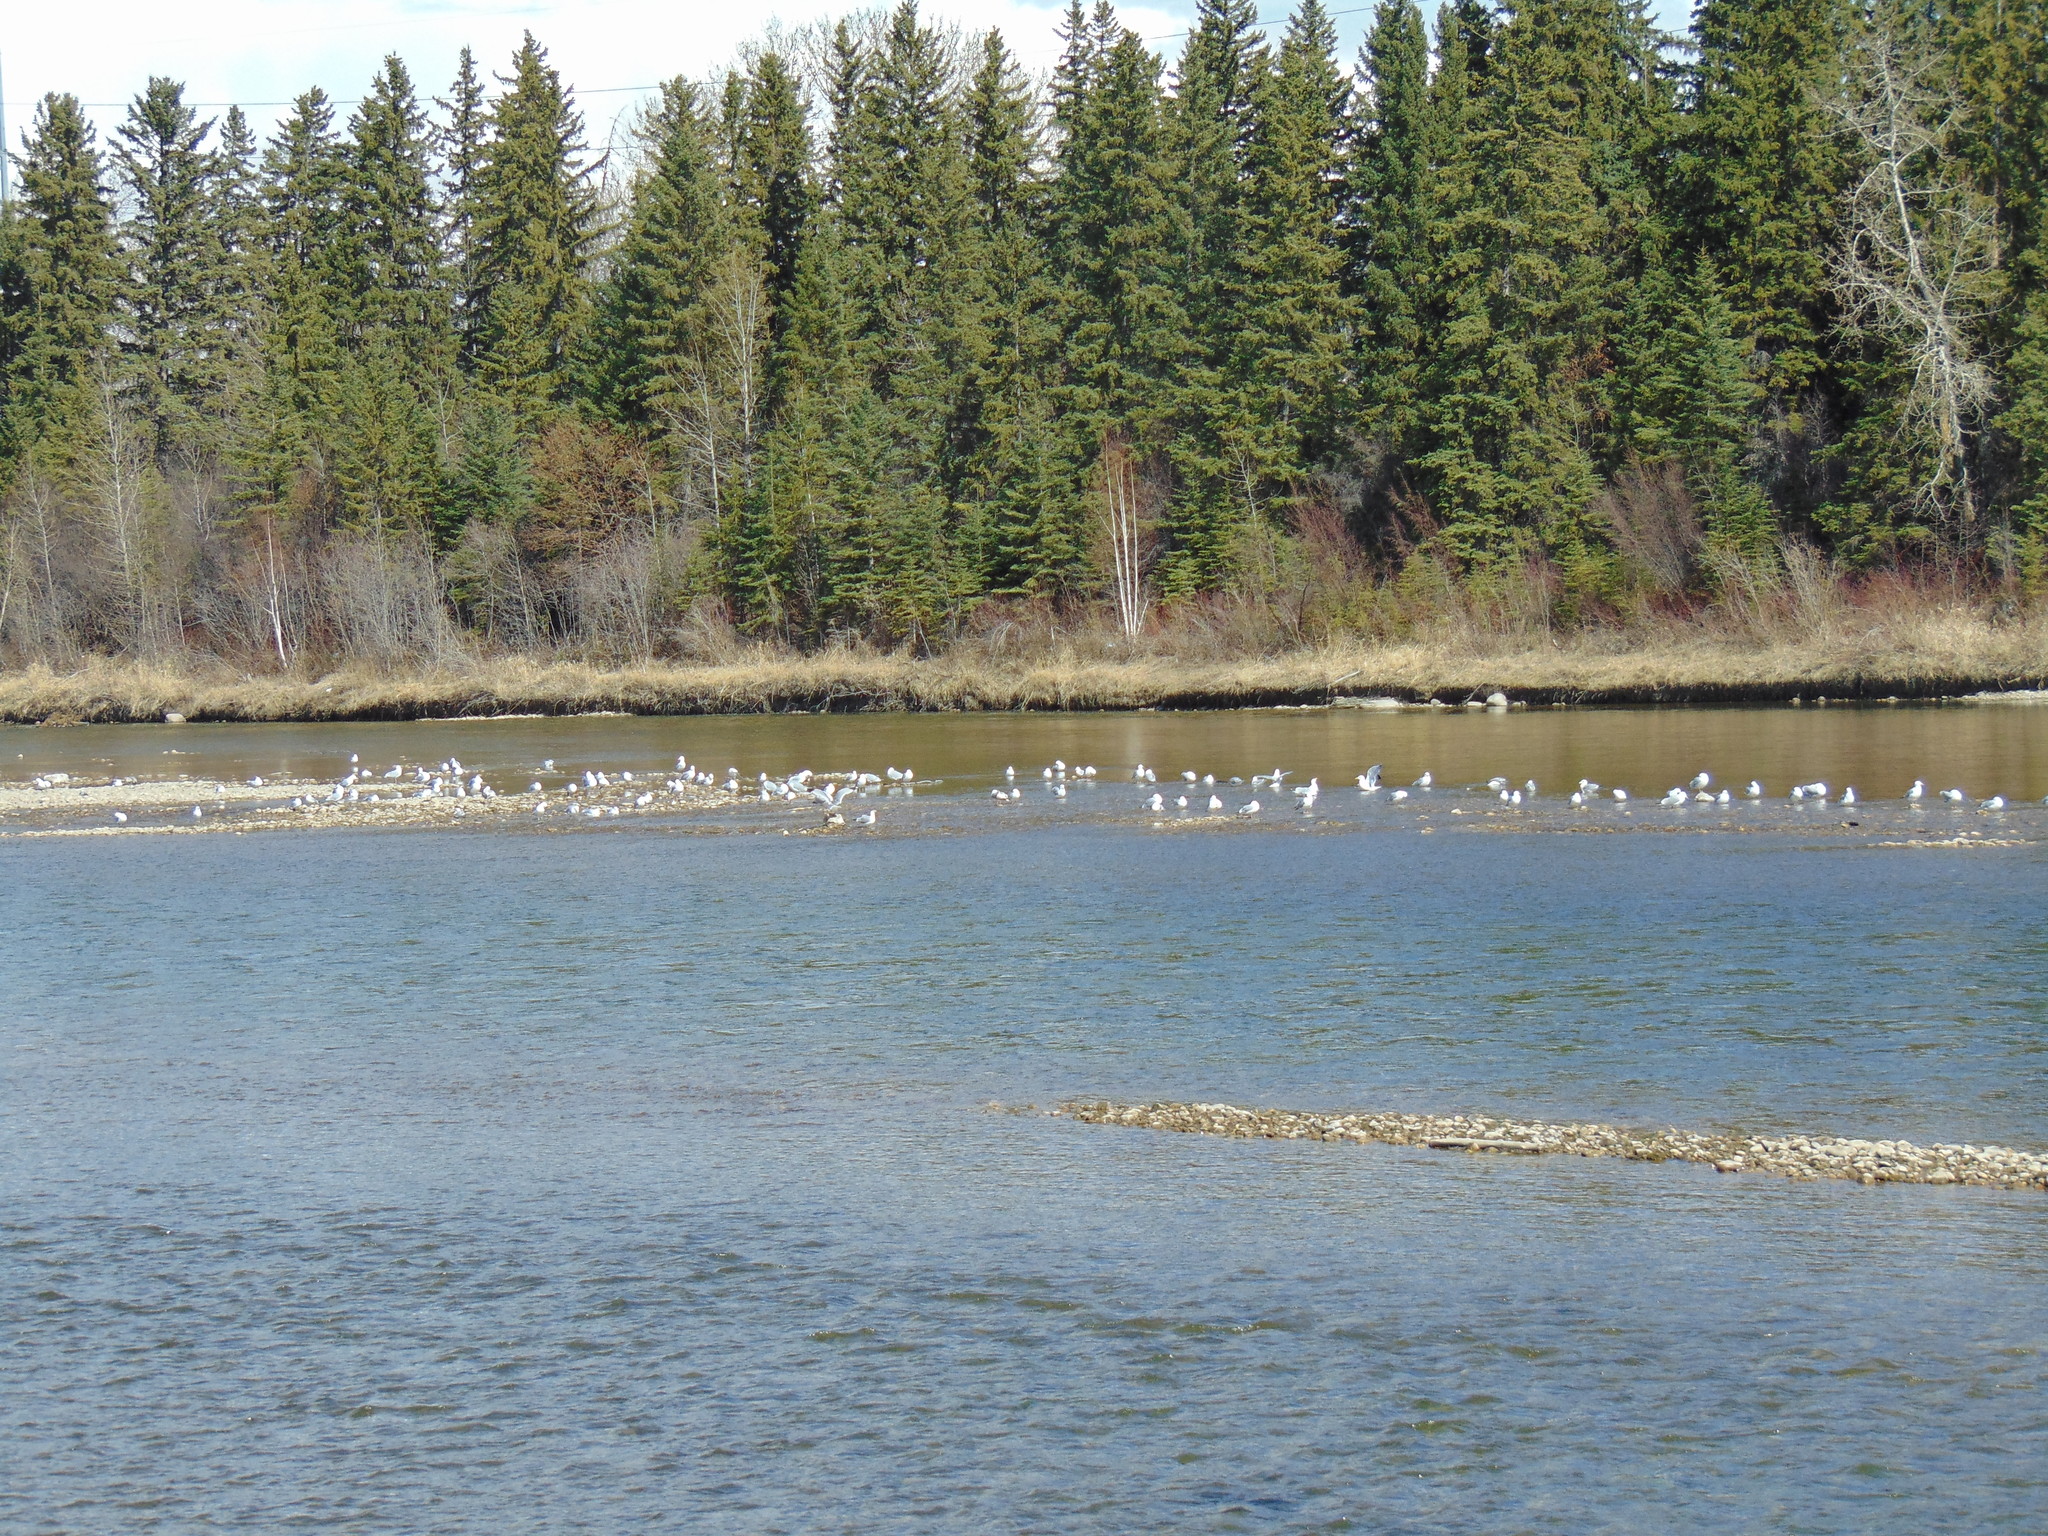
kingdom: Animalia
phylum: Chordata
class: Aves
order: Charadriiformes
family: Laridae
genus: Larus
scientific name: Larus delawarensis
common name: Ring-billed gull
